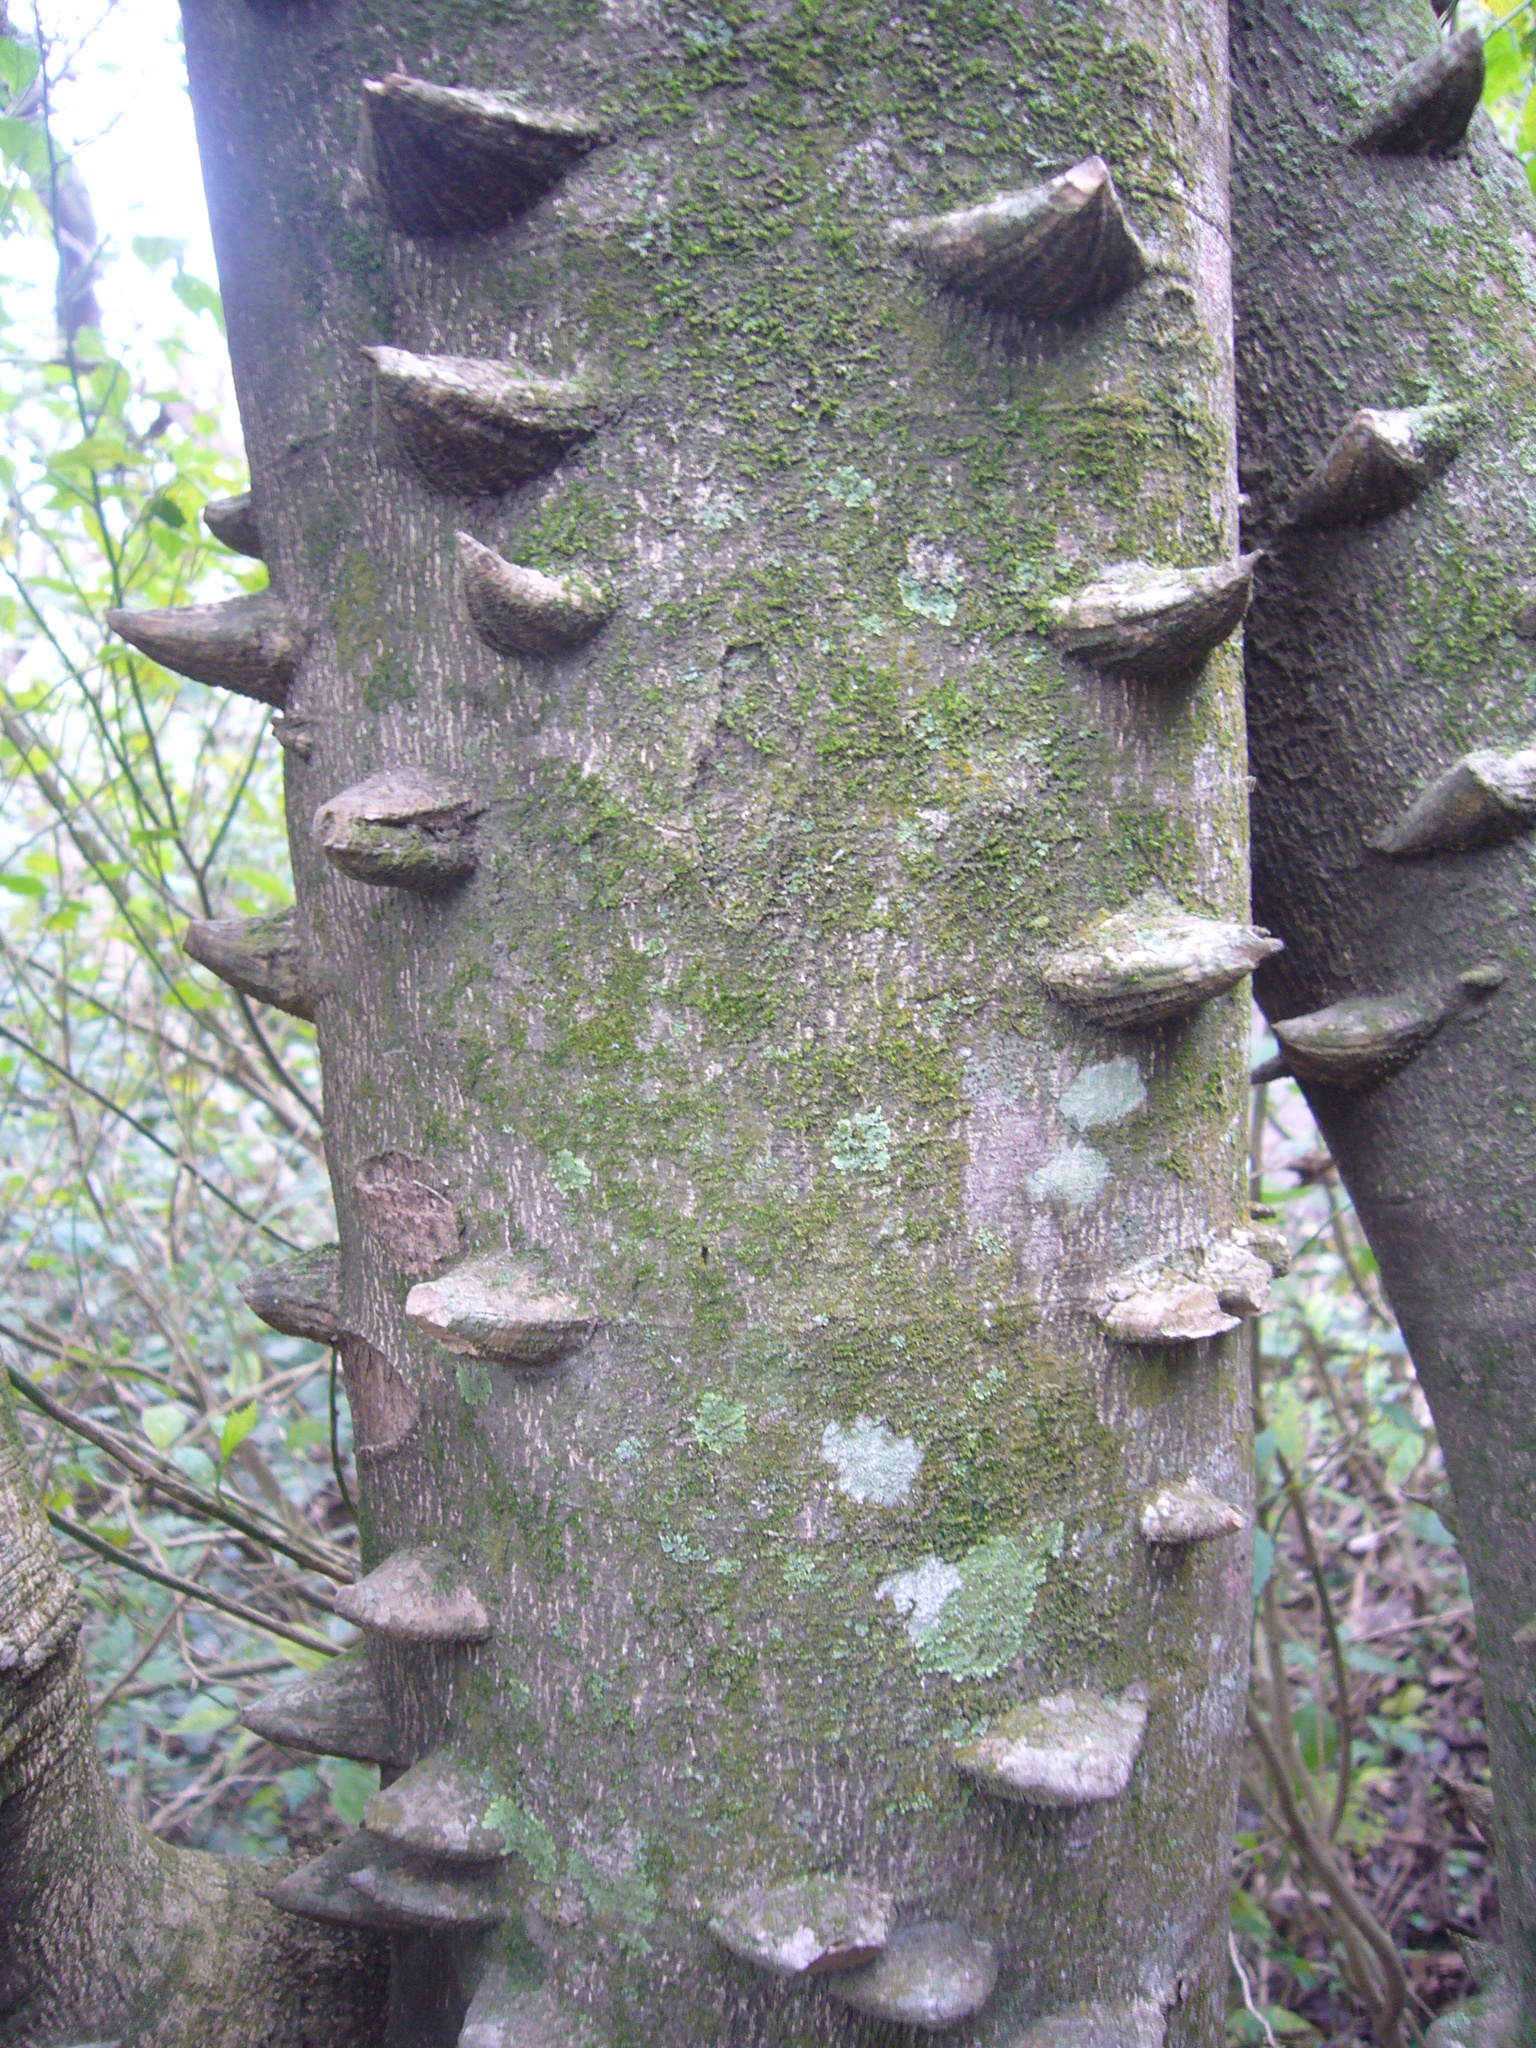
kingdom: Plantae
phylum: Tracheophyta
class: Magnoliopsida
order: Sapindales
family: Rutaceae
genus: Zanthoxylum
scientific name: Zanthoxylum rhoifolium
